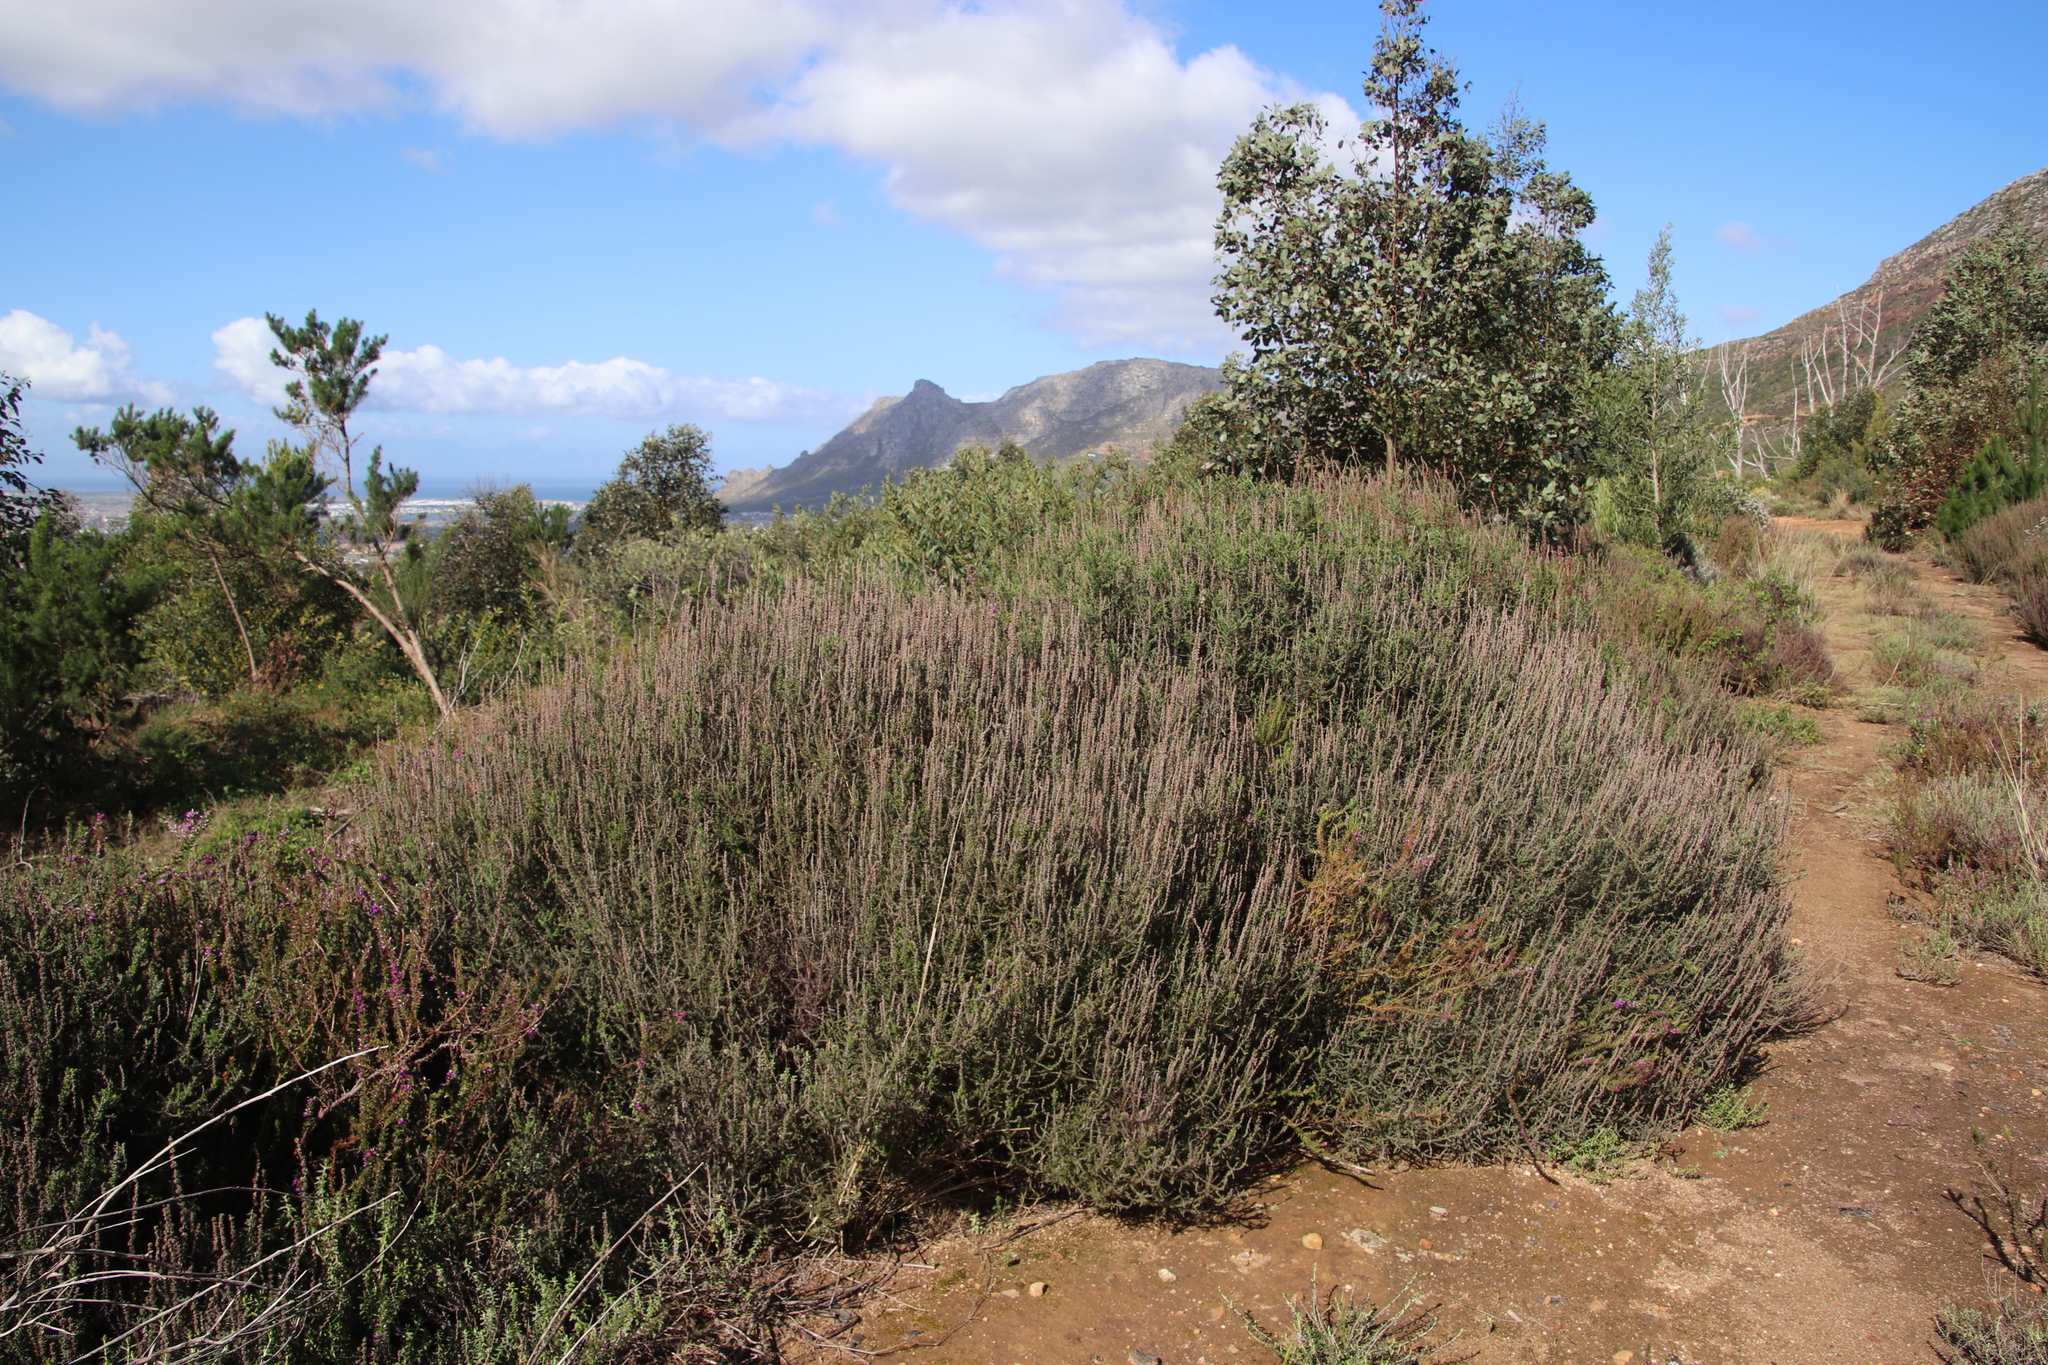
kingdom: Plantae
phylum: Tracheophyta
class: Magnoliopsida
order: Asterales
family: Asteraceae
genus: Seriphium
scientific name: Seriphium cinereum
